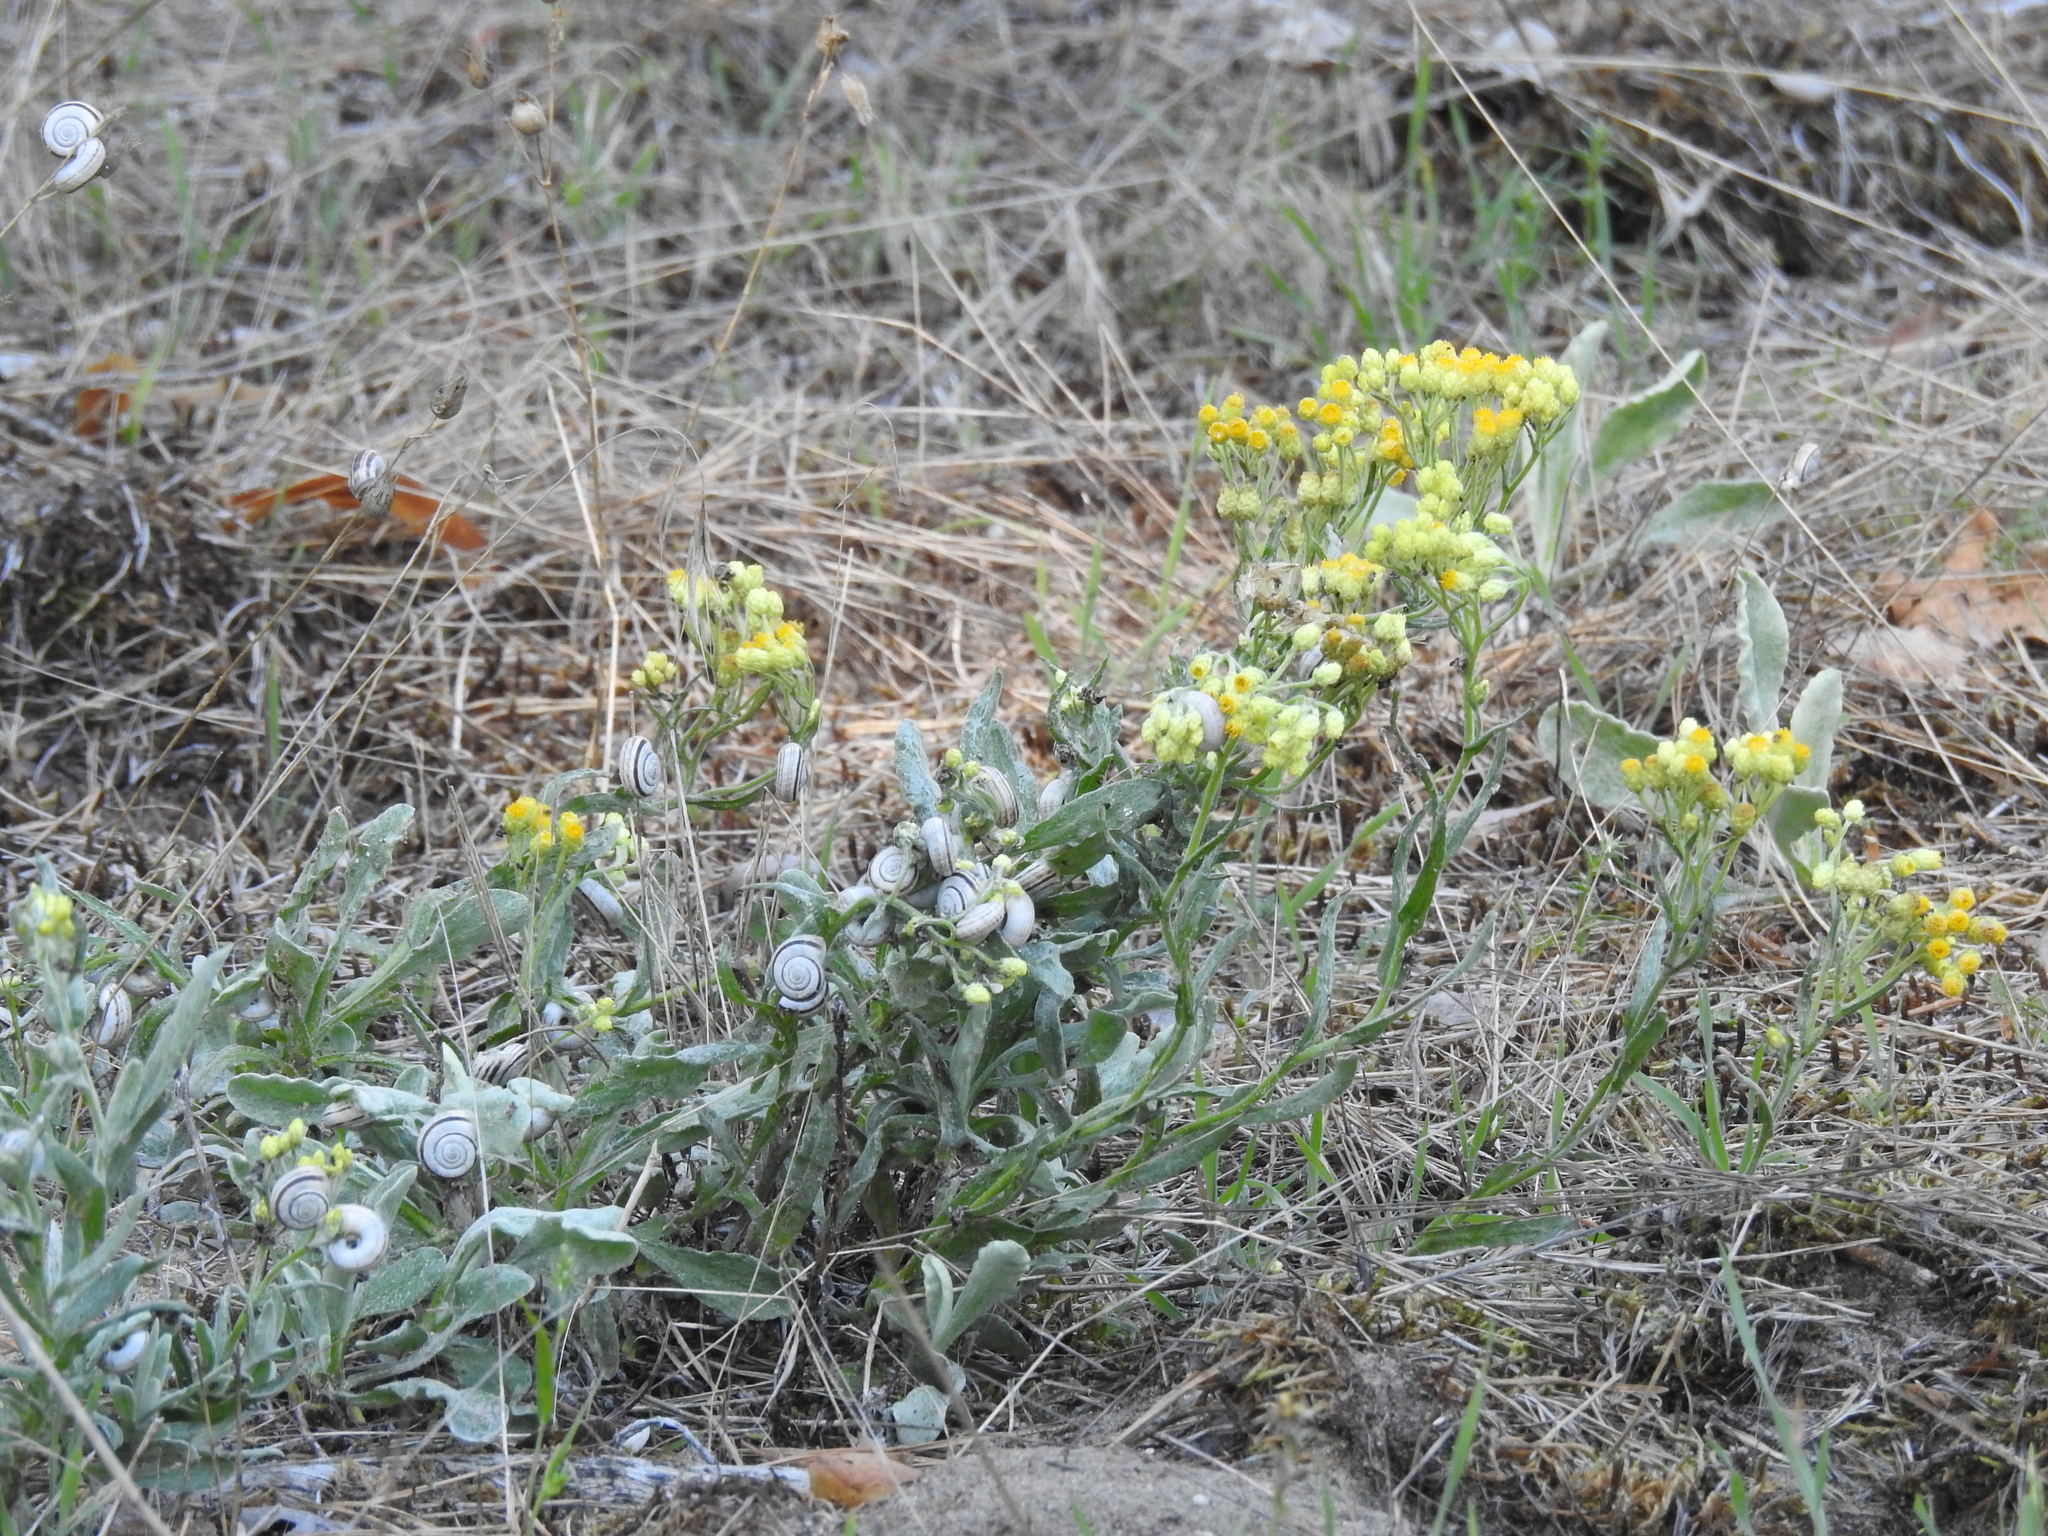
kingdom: Plantae
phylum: Tracheophyta
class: Magnoliopsida
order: Asterales
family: Asteraceae
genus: Helichrysum
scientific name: Helichrysum arenarium
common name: Strawflower
